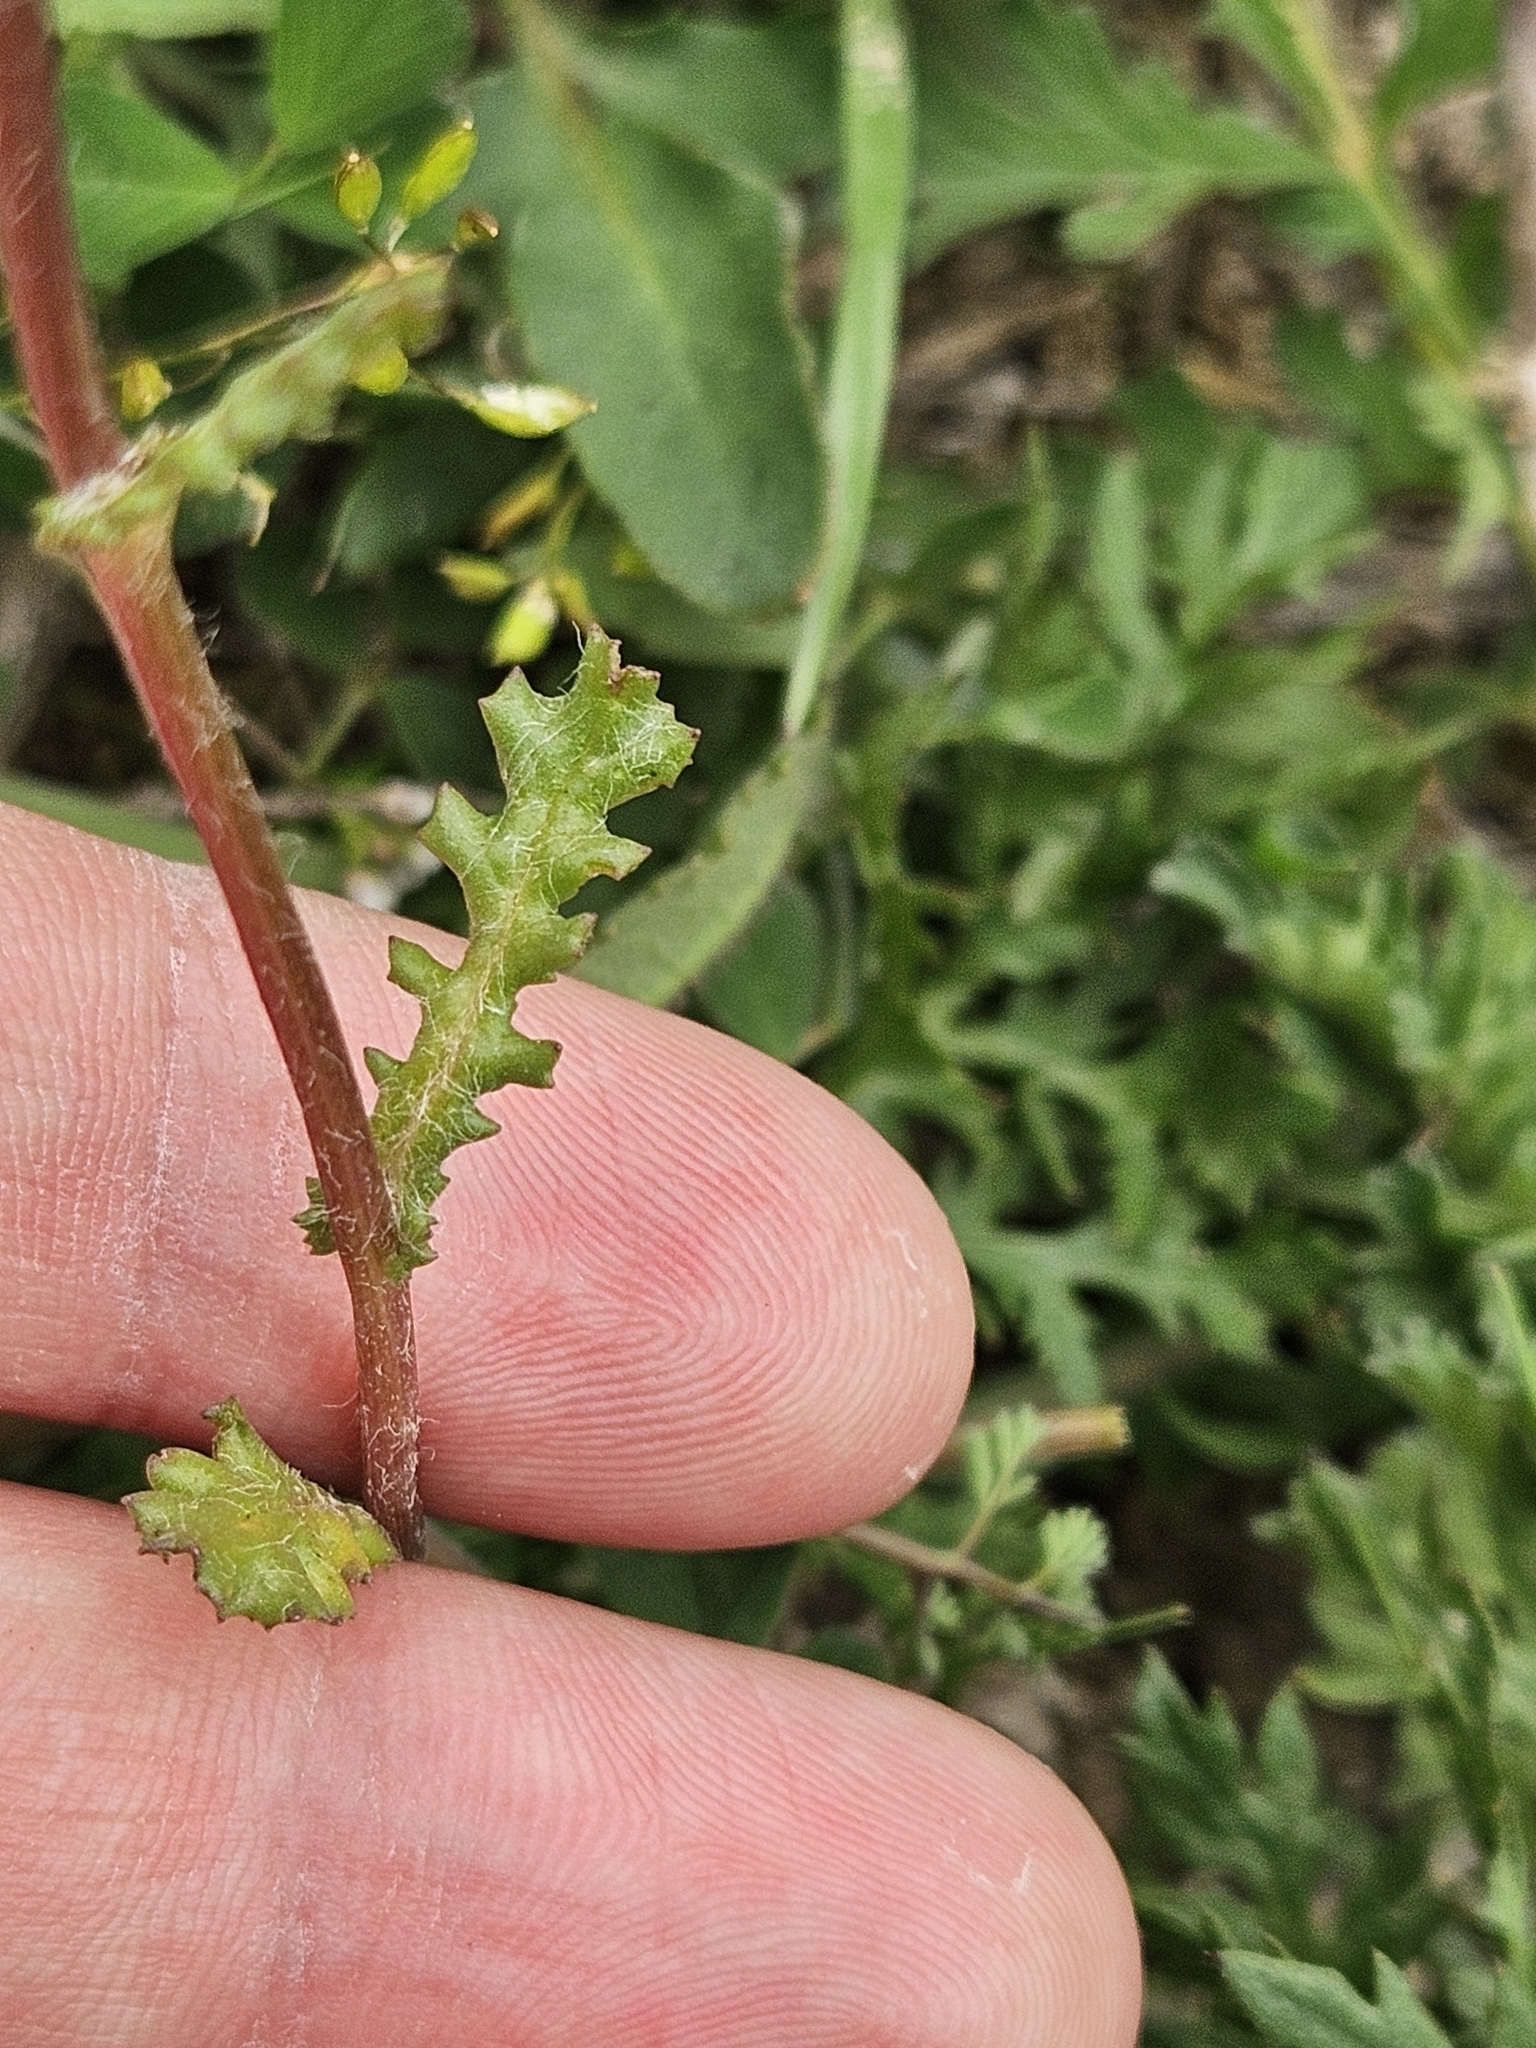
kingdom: Plantae
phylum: Tracheophyta
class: Magnoliopsida
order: Asterales
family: Asteraceae
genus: Senecio
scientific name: Senecio vulgaris
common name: Old-man-in-the-spring
